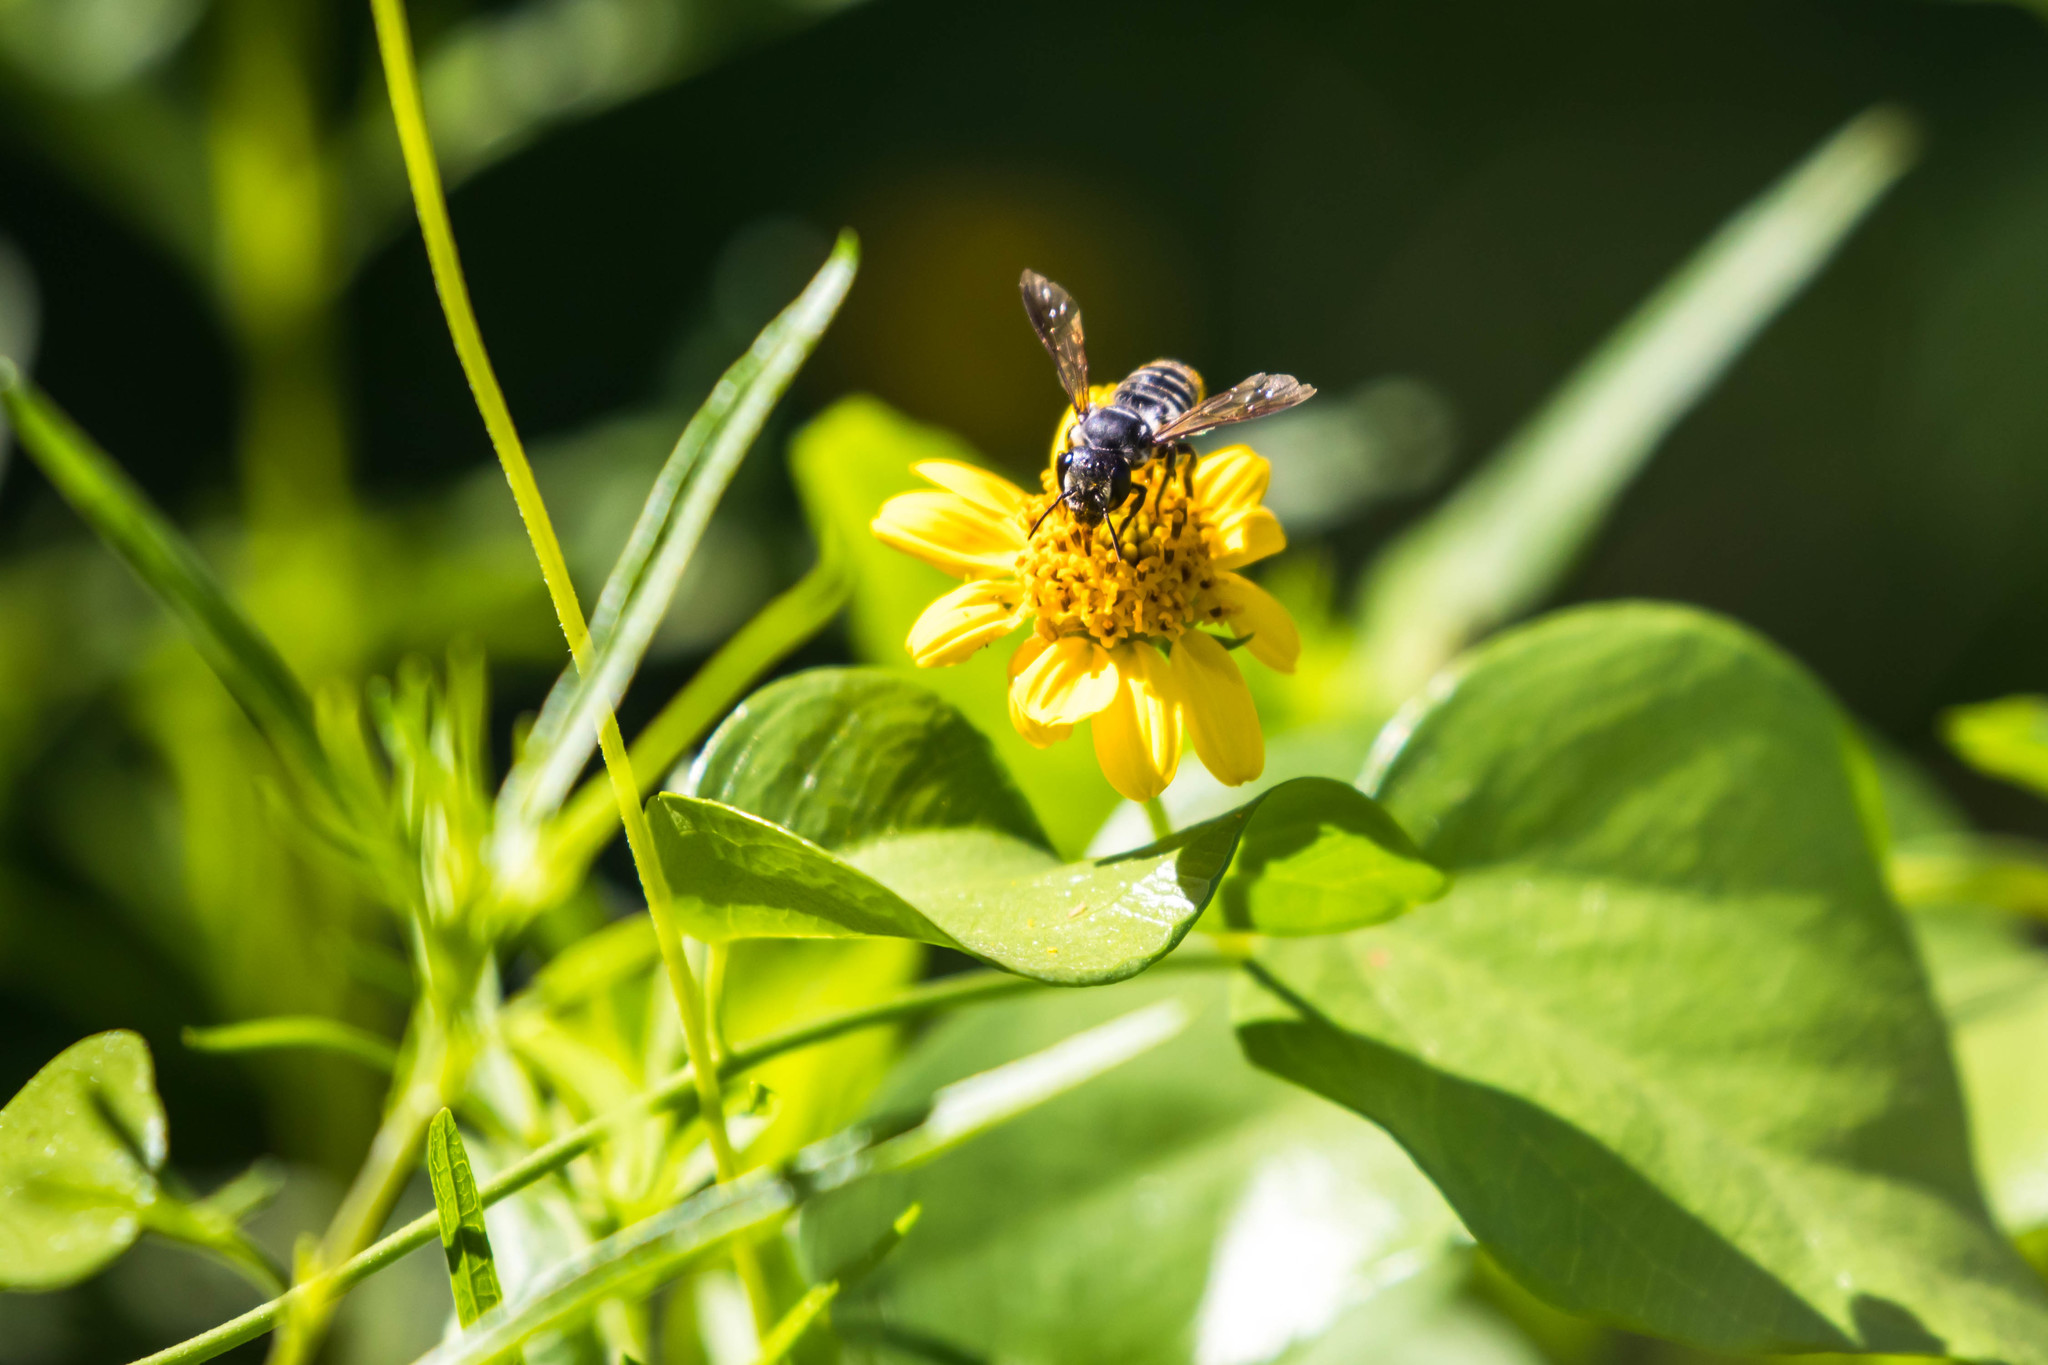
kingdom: Animalia
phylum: Arthropoda
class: Insecta
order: Hymenoptera
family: Megachilidae
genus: Megachile
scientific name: Megachile zaptlana
